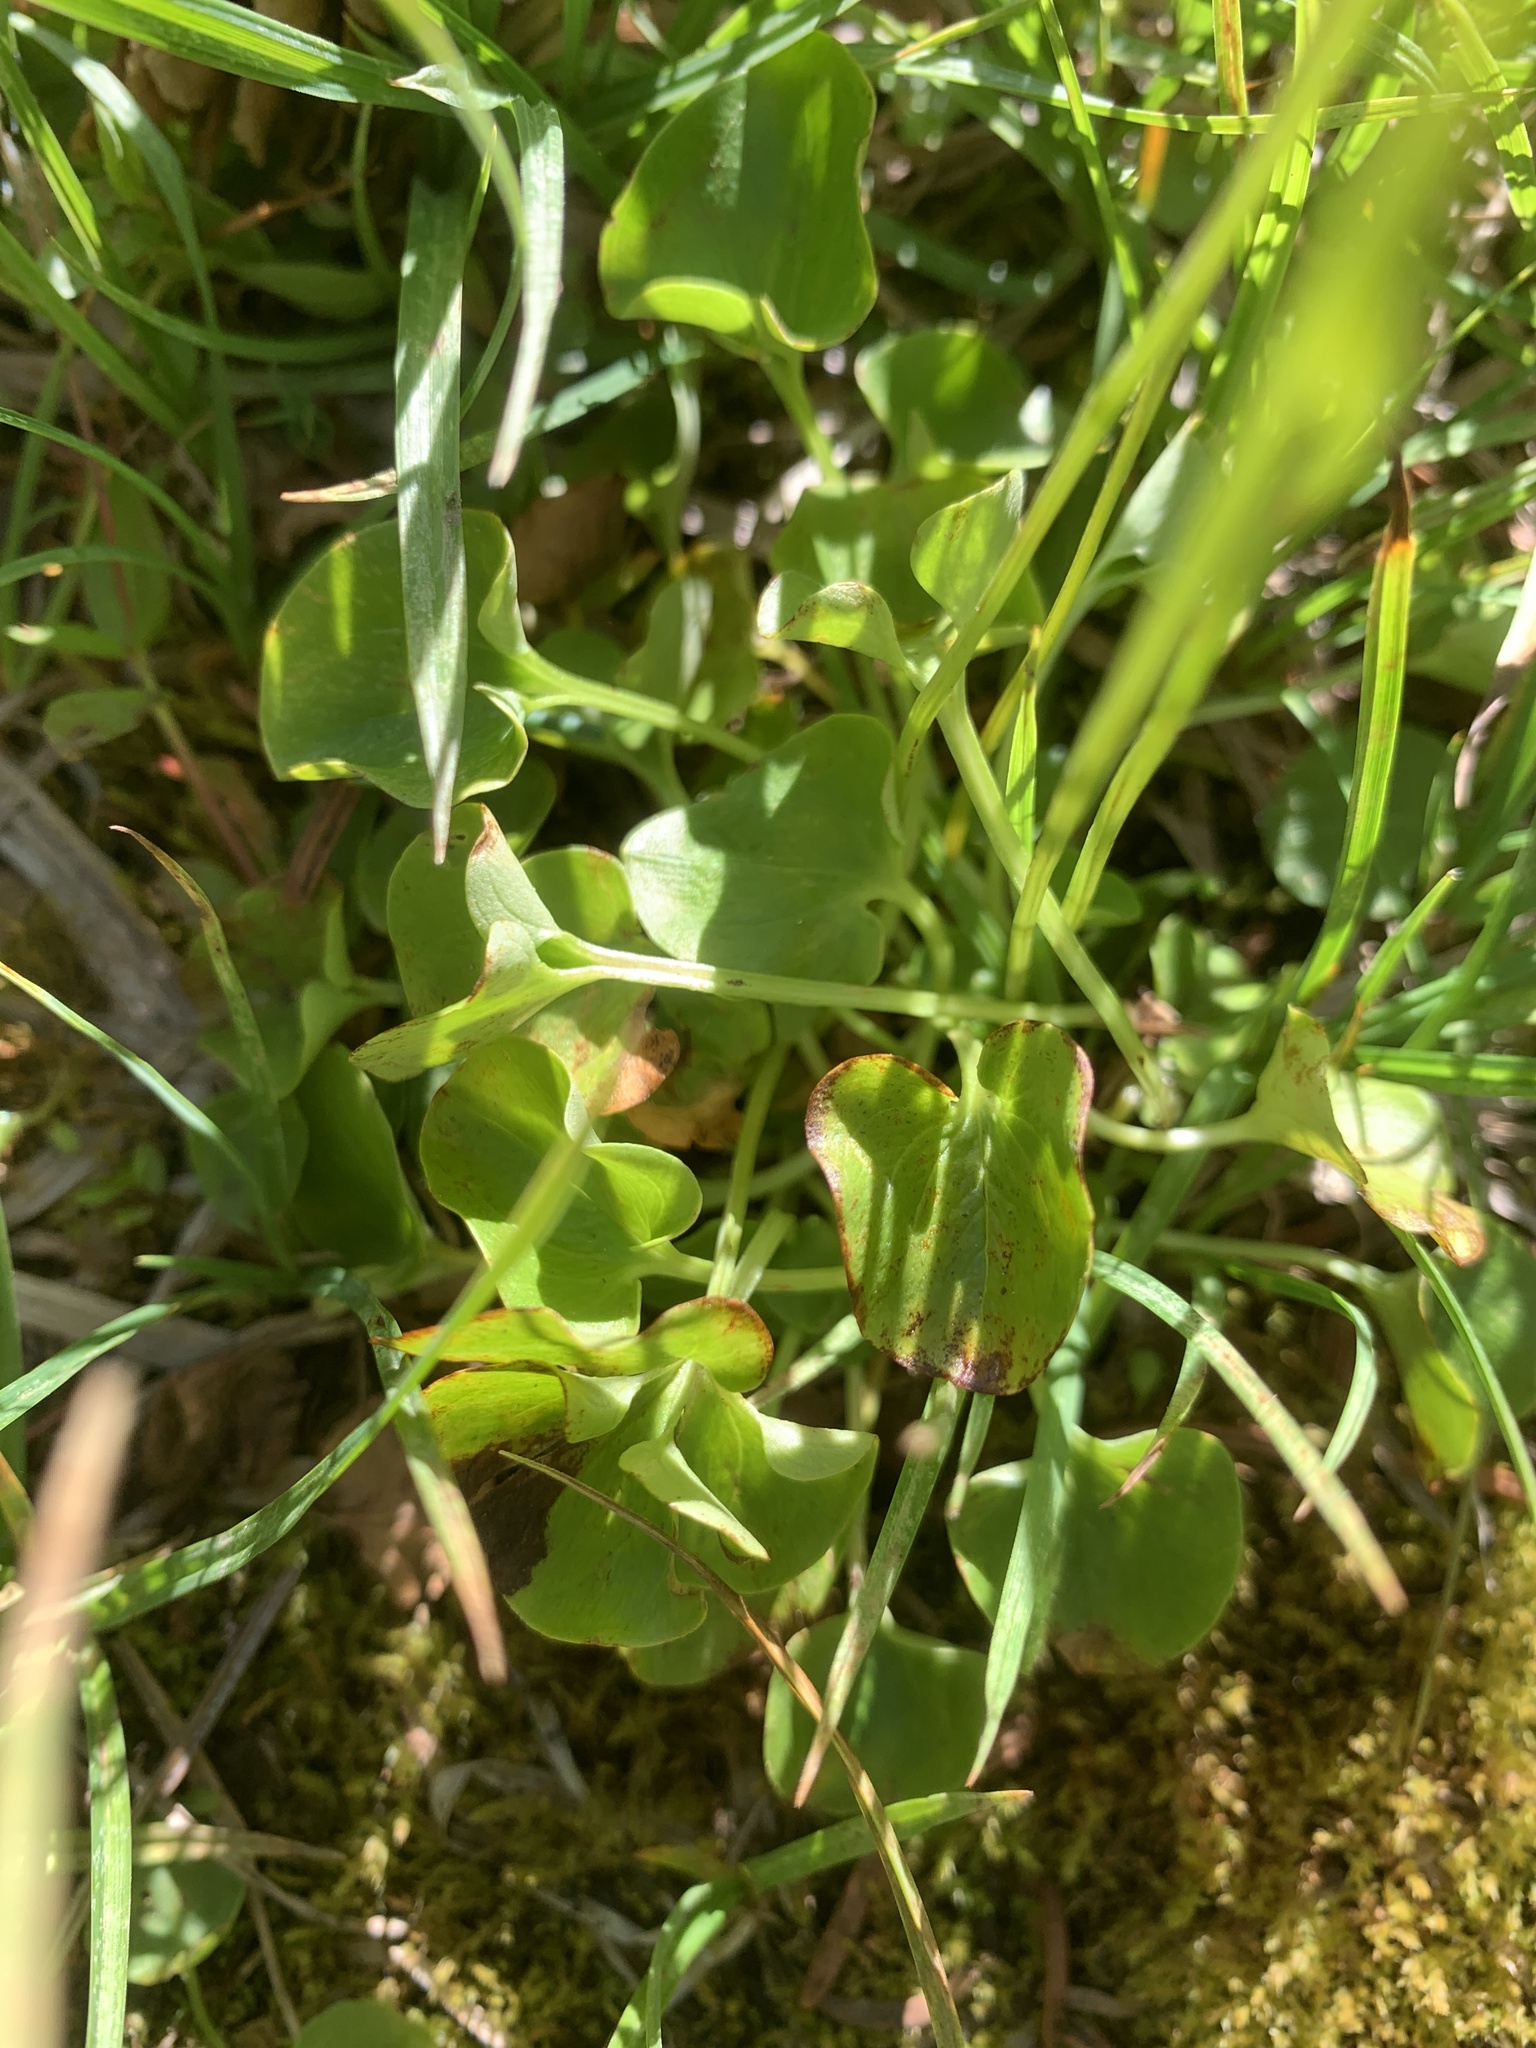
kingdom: Plantae
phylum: Tracheophyta
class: Magnoliopsida
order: Celastrales
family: Parnassiaceae
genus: Parnassia
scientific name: Parnassia fimbriata
